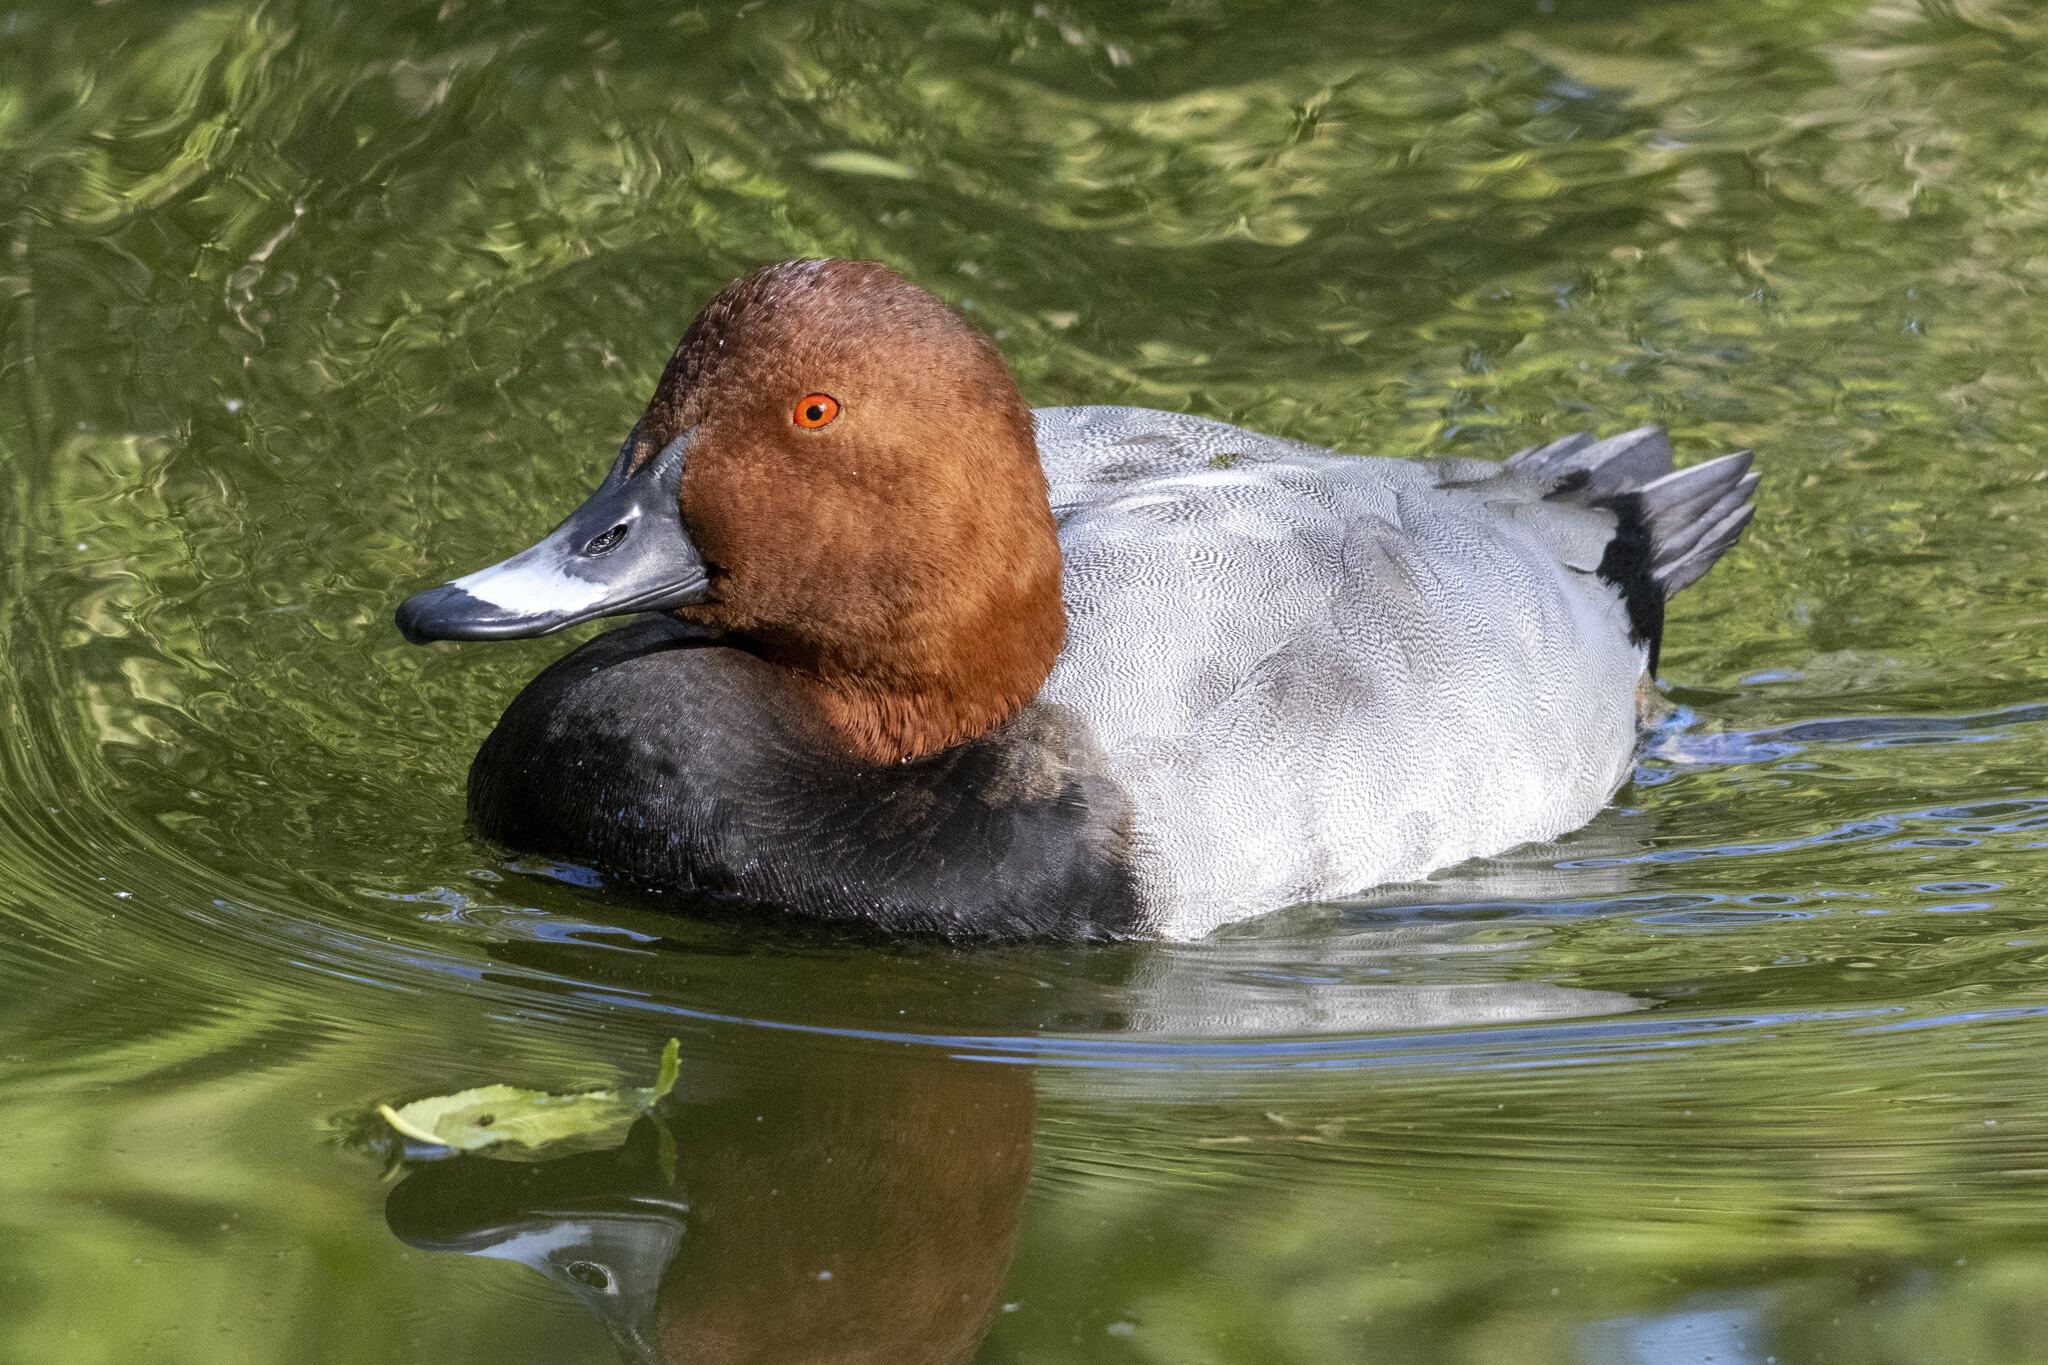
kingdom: Animalia
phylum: Chordata
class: Aves
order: Anseriformes
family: Anatidae
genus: Aythya
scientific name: Aythya ferina
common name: Common pochard
